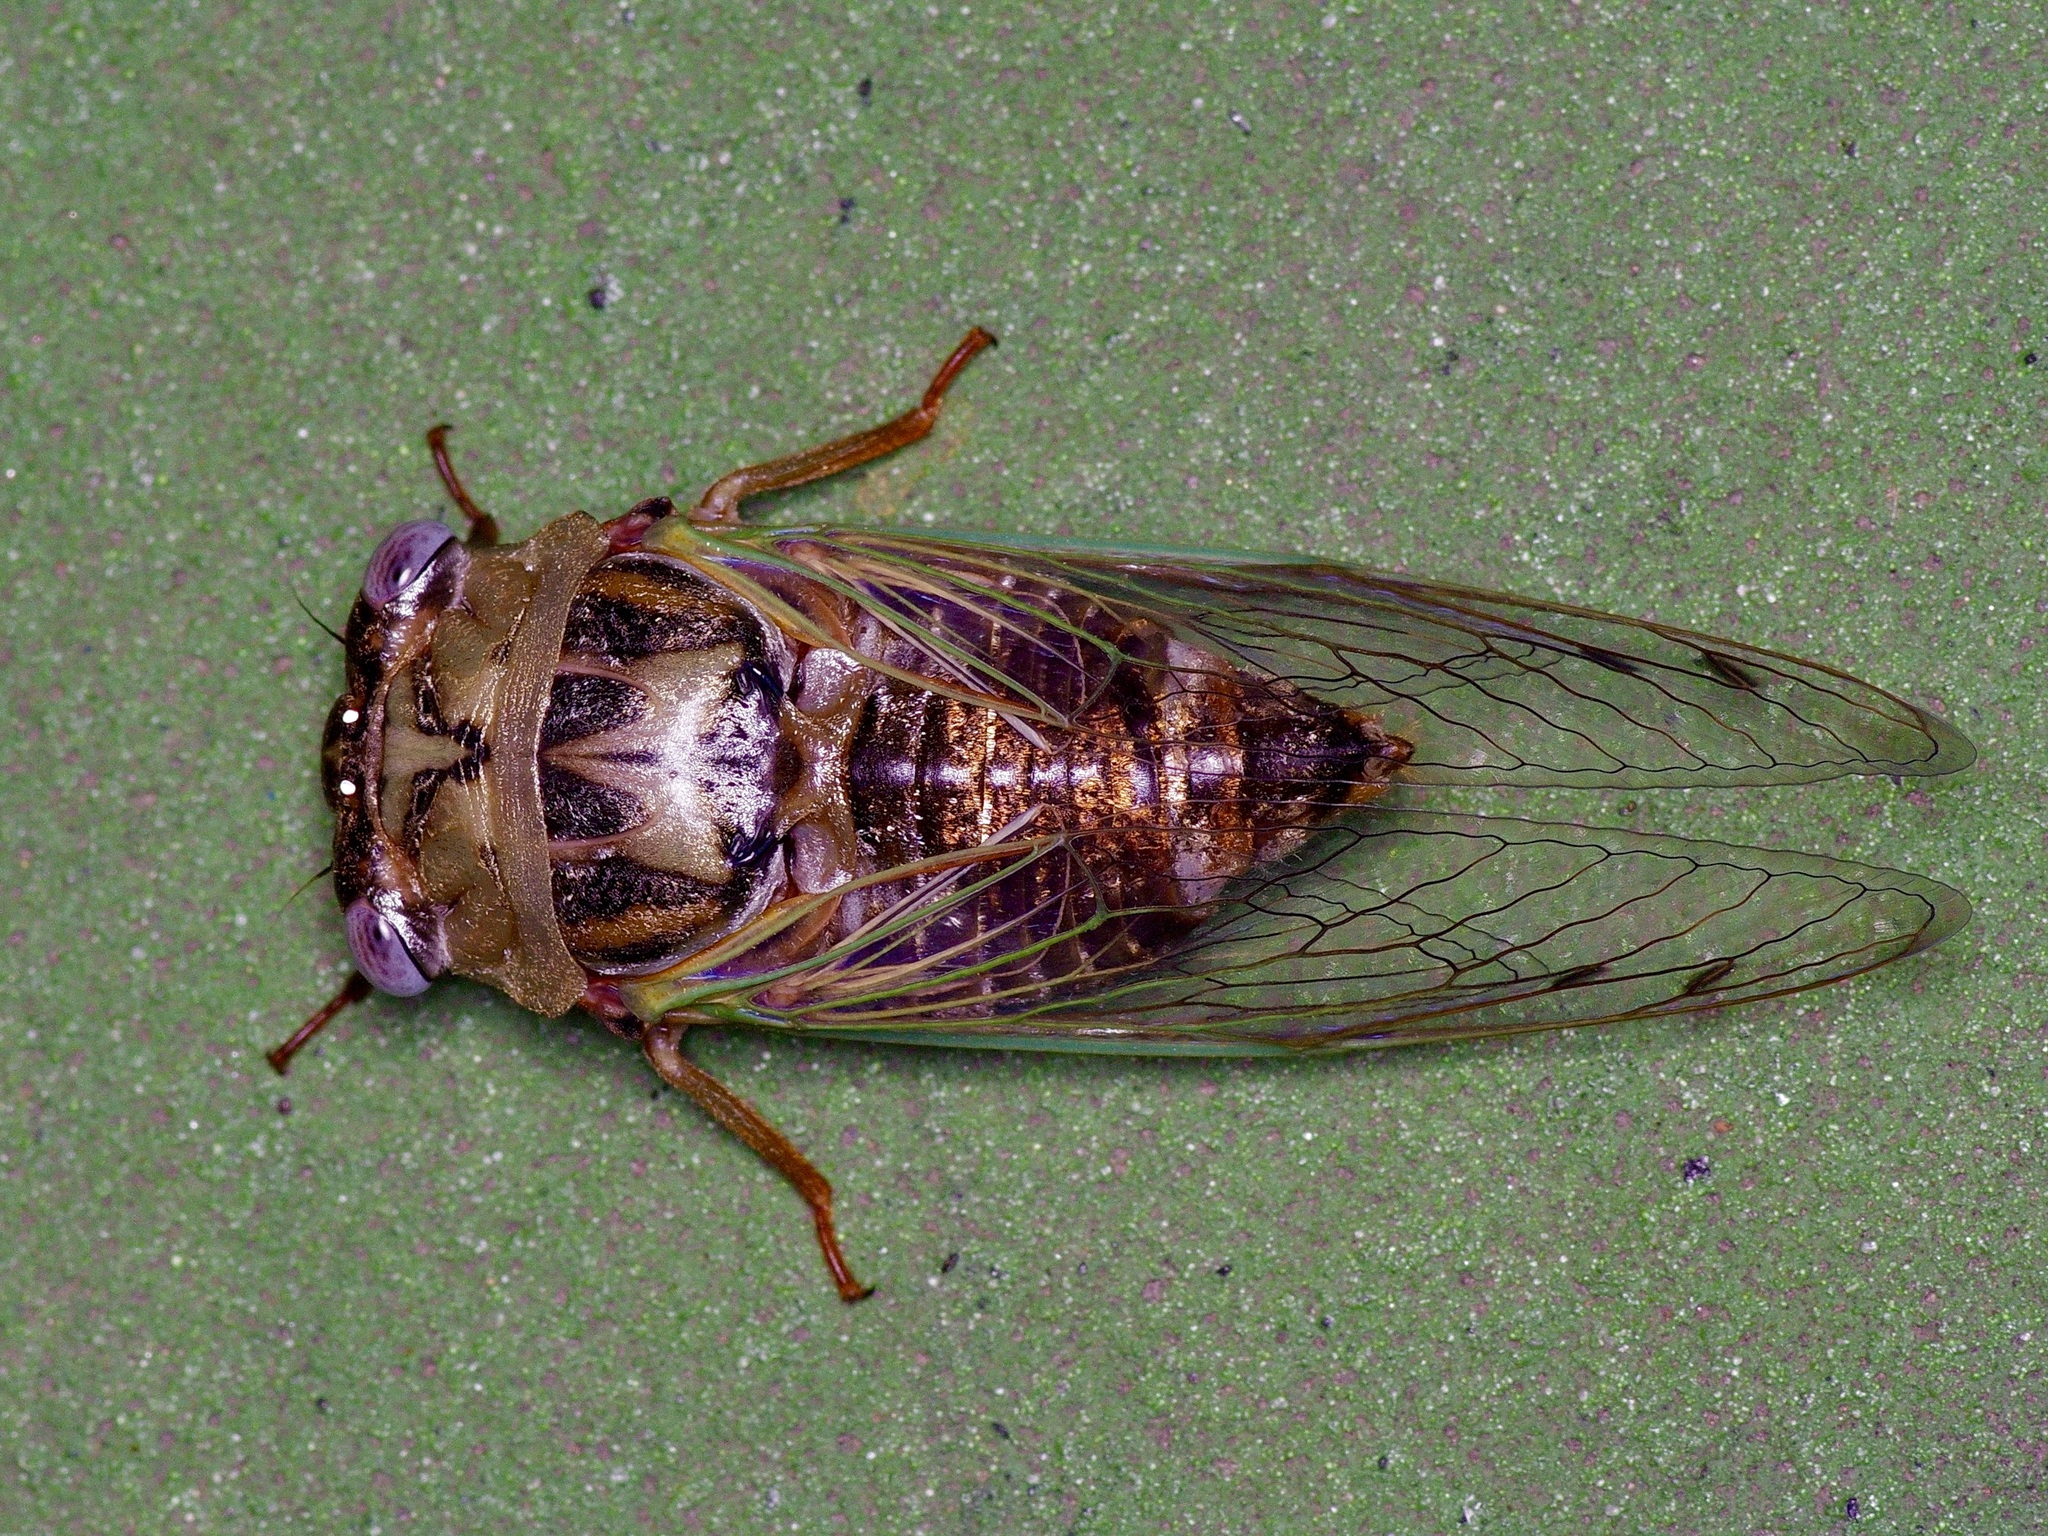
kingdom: Animalia
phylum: Arthropoda
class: Insecta
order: Hemiptera
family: Cicadidae
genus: Megatibicen
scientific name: Megatibicen resh
